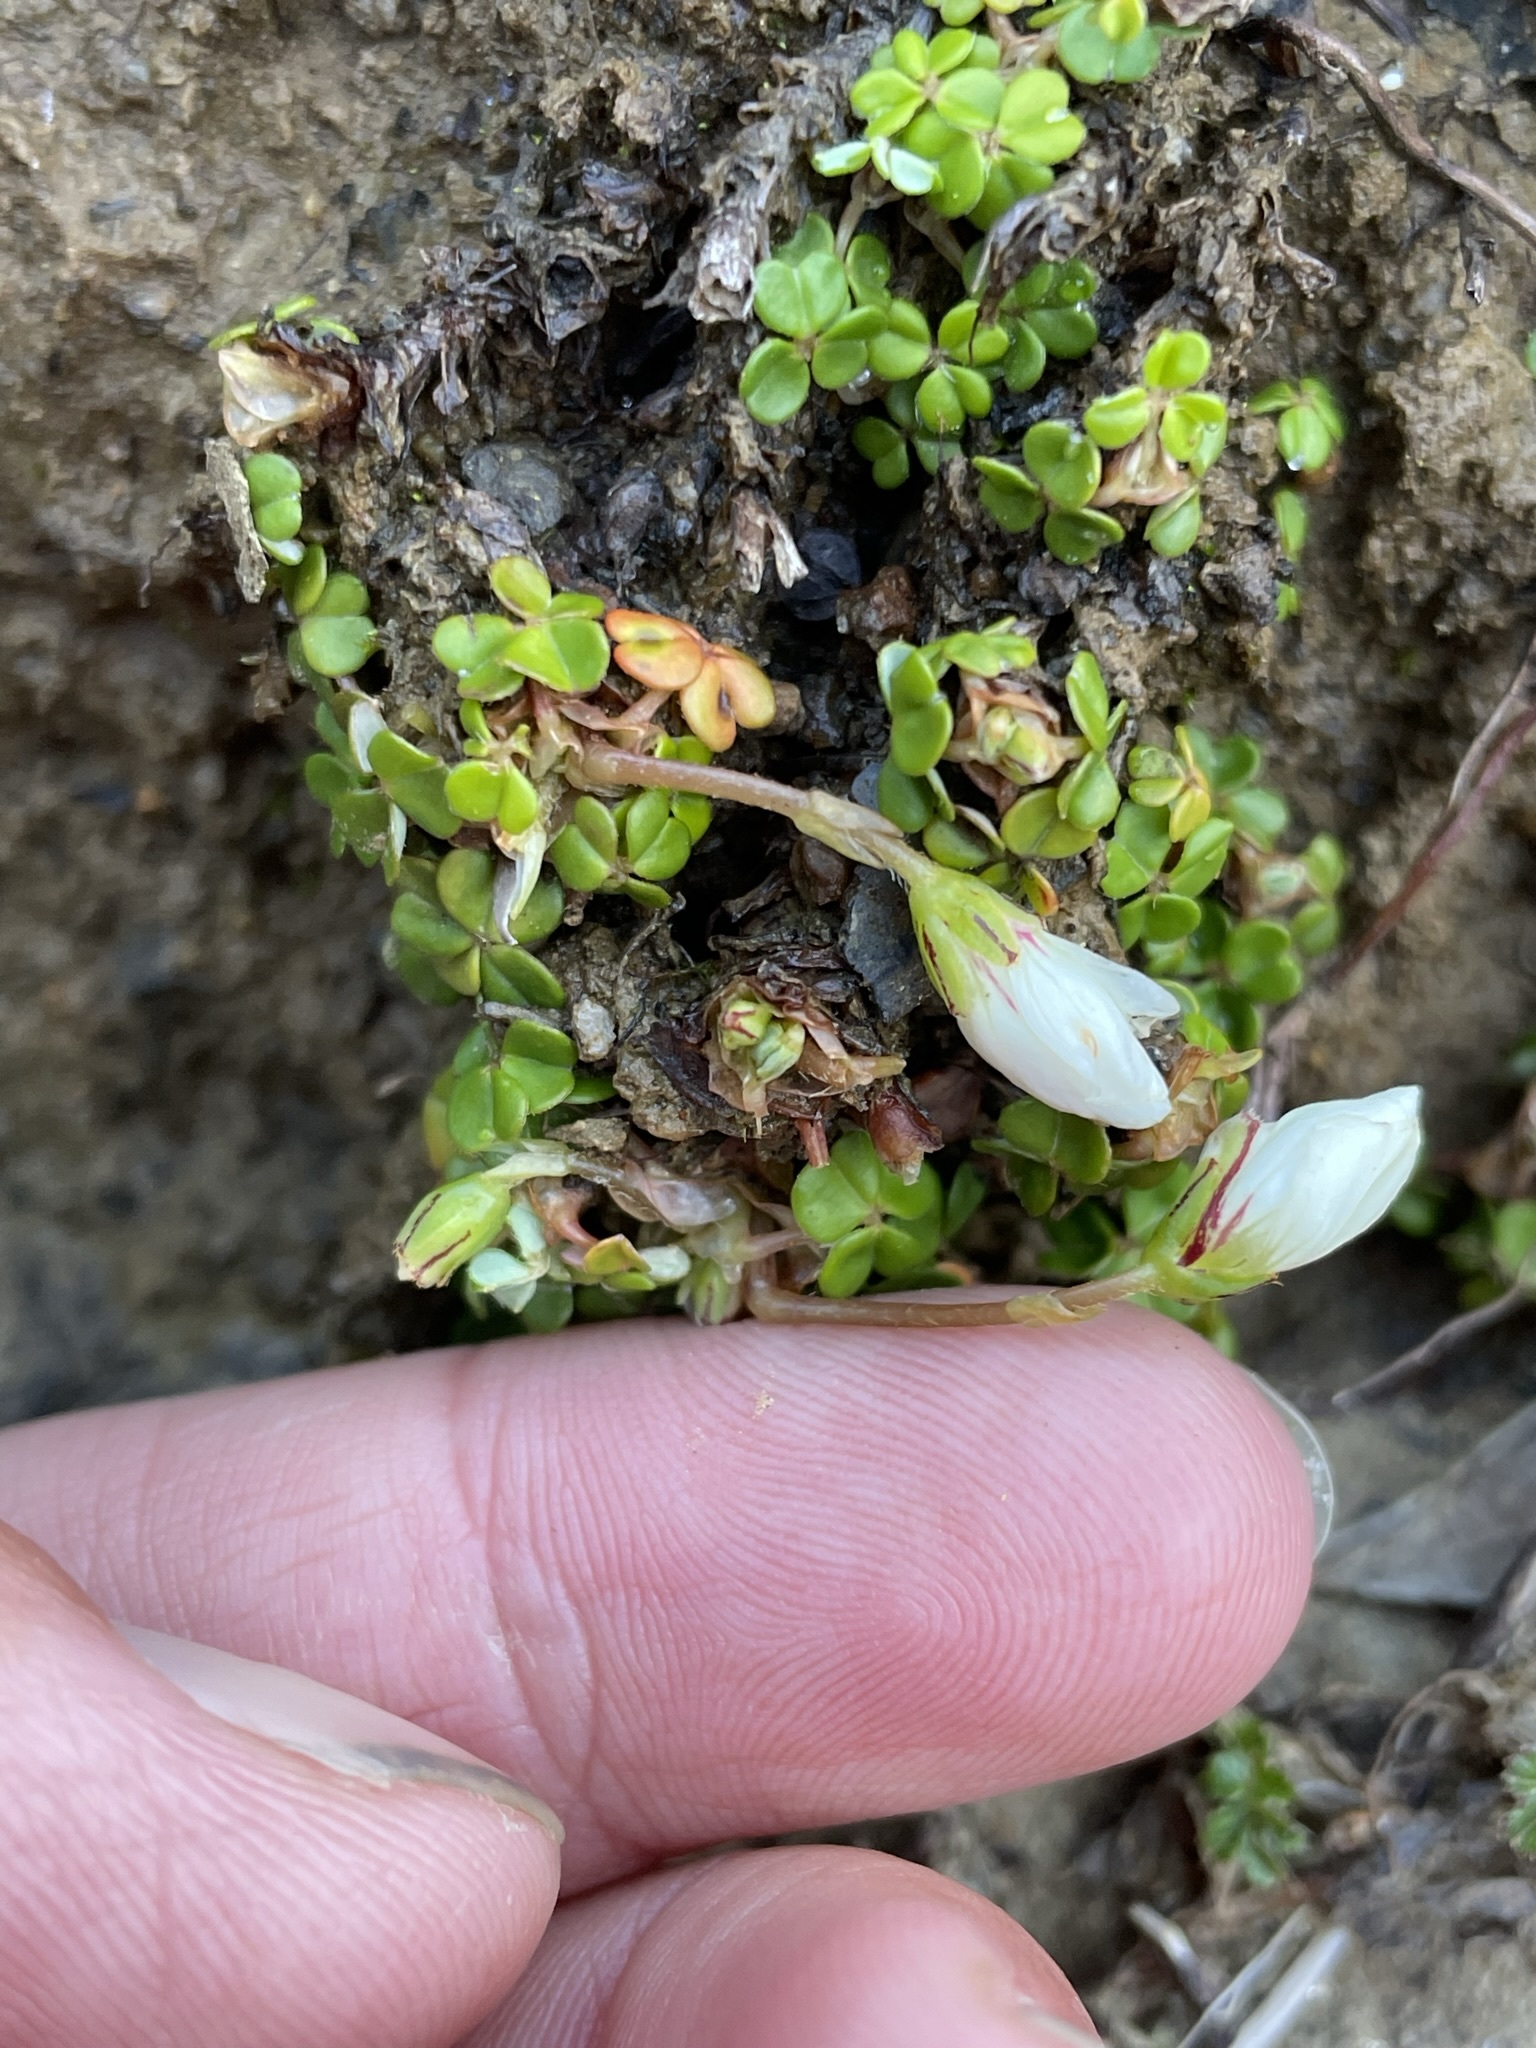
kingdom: Plantae
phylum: Tracheophyta
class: Magnoliopsida
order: Oxalidales
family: Oxalidaceae
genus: Oxalis
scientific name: Oxalis magellanica
